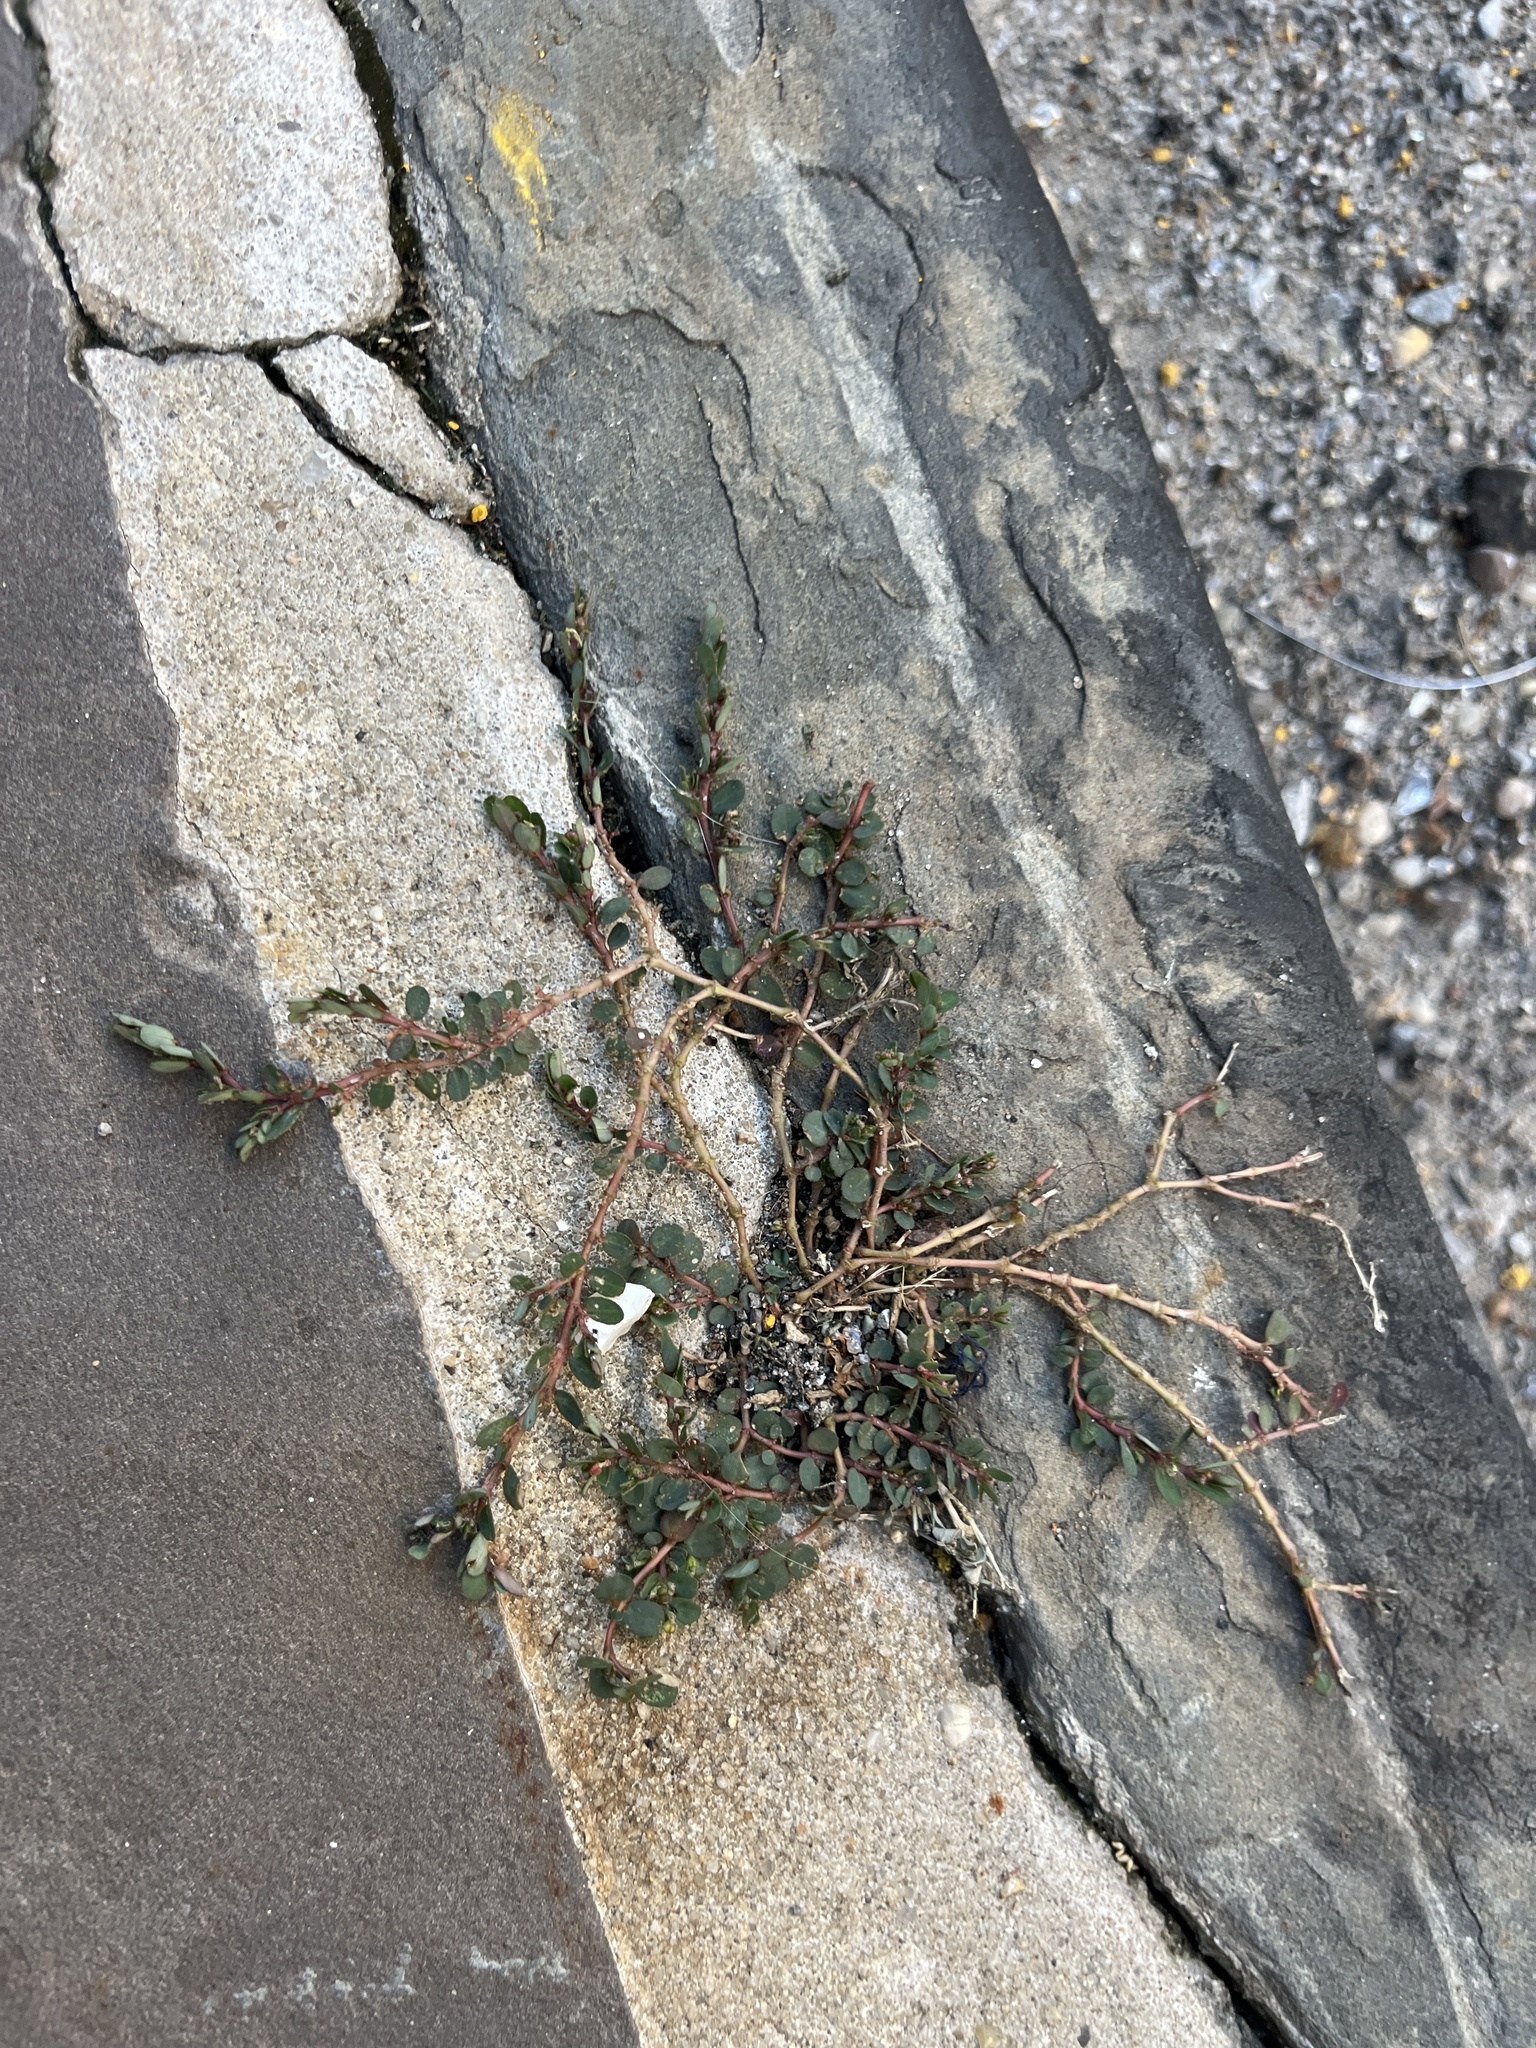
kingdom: Plantae
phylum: Tracheophyta
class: Magnoliopsida
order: Malpighiales
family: Euphorbiaceae
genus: Euphorbia
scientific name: Euphorbia prostrata
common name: Prostrate sandmat
